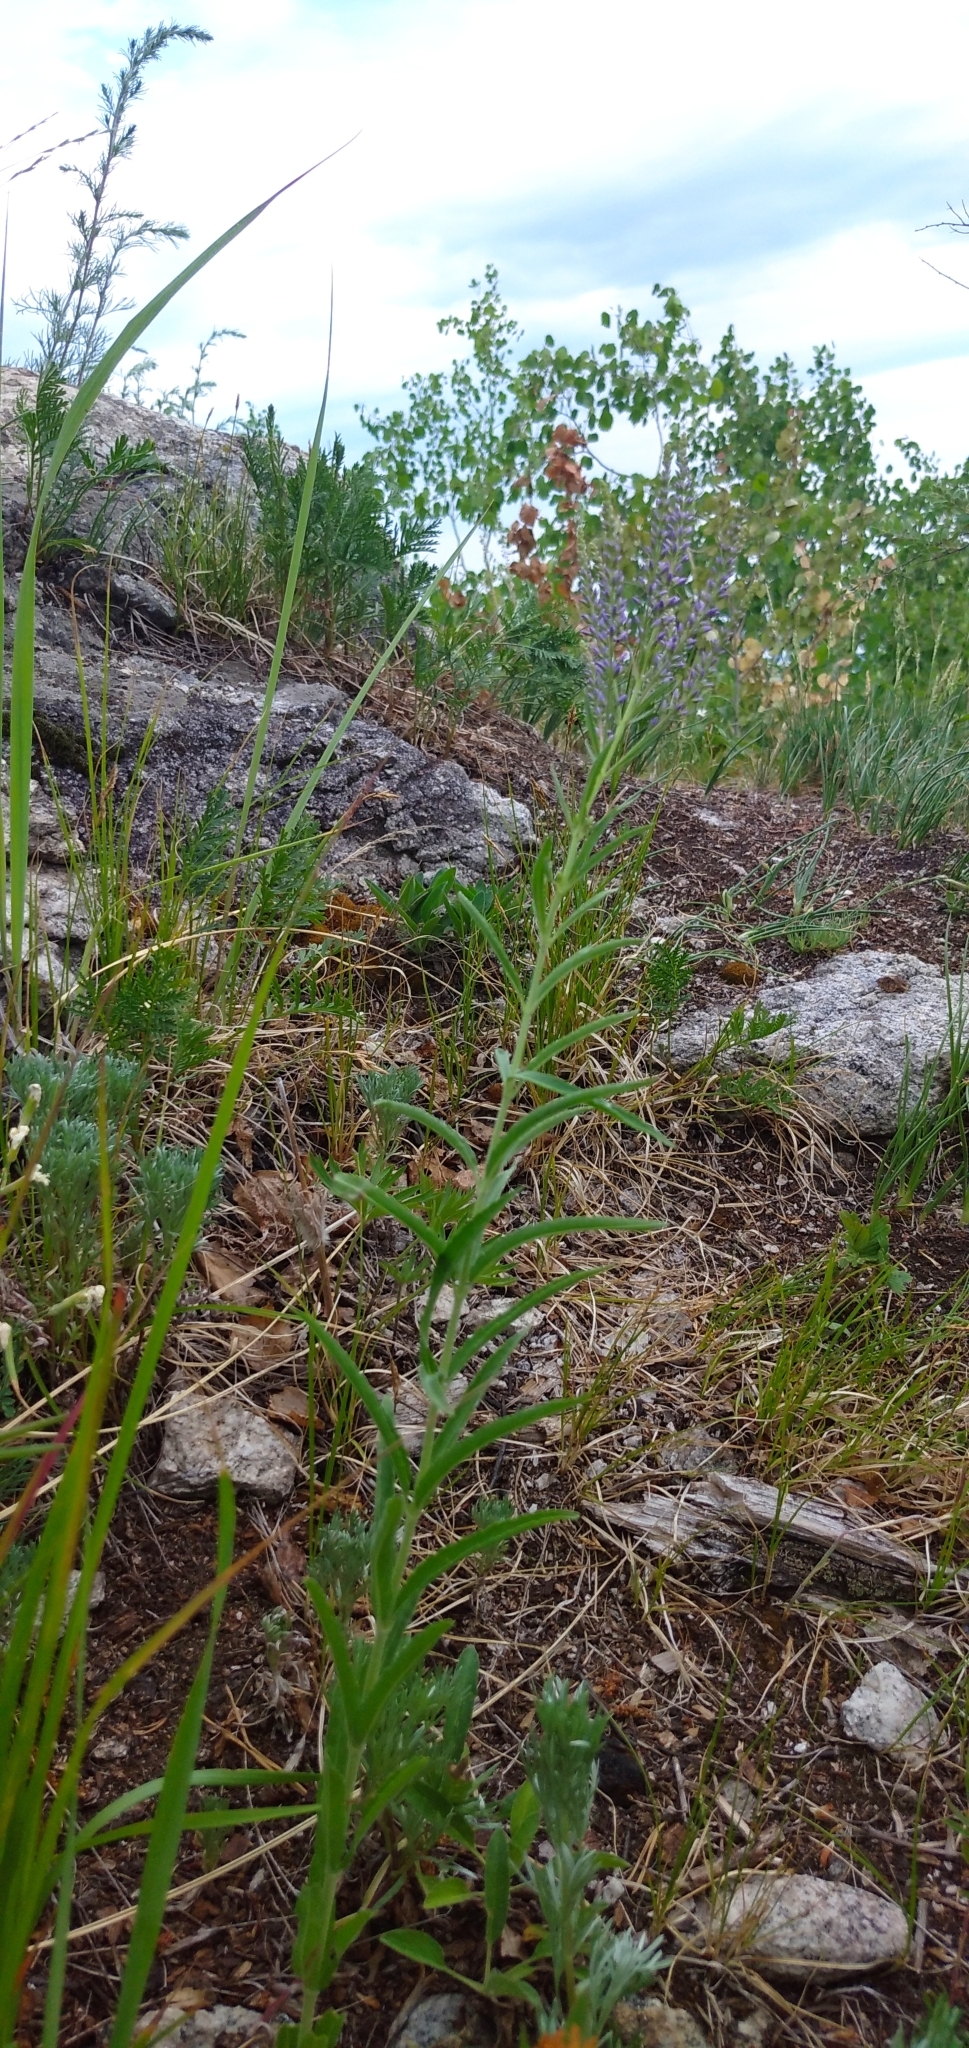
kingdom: Plantae
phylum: Tracheophyta
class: Magnoliopsida
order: Lamiales
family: Plantaginaceae
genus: Veronica
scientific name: Veronica spuria
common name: Bastard speedwell
